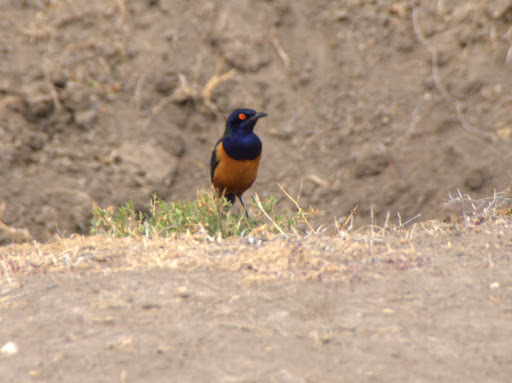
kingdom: Animalia
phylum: Chordata
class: Aves
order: Passeriformes
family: Sturnidae
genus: Lamprotornis
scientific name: Lamprotornis hildebrandti
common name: Hildebrandt's starling
